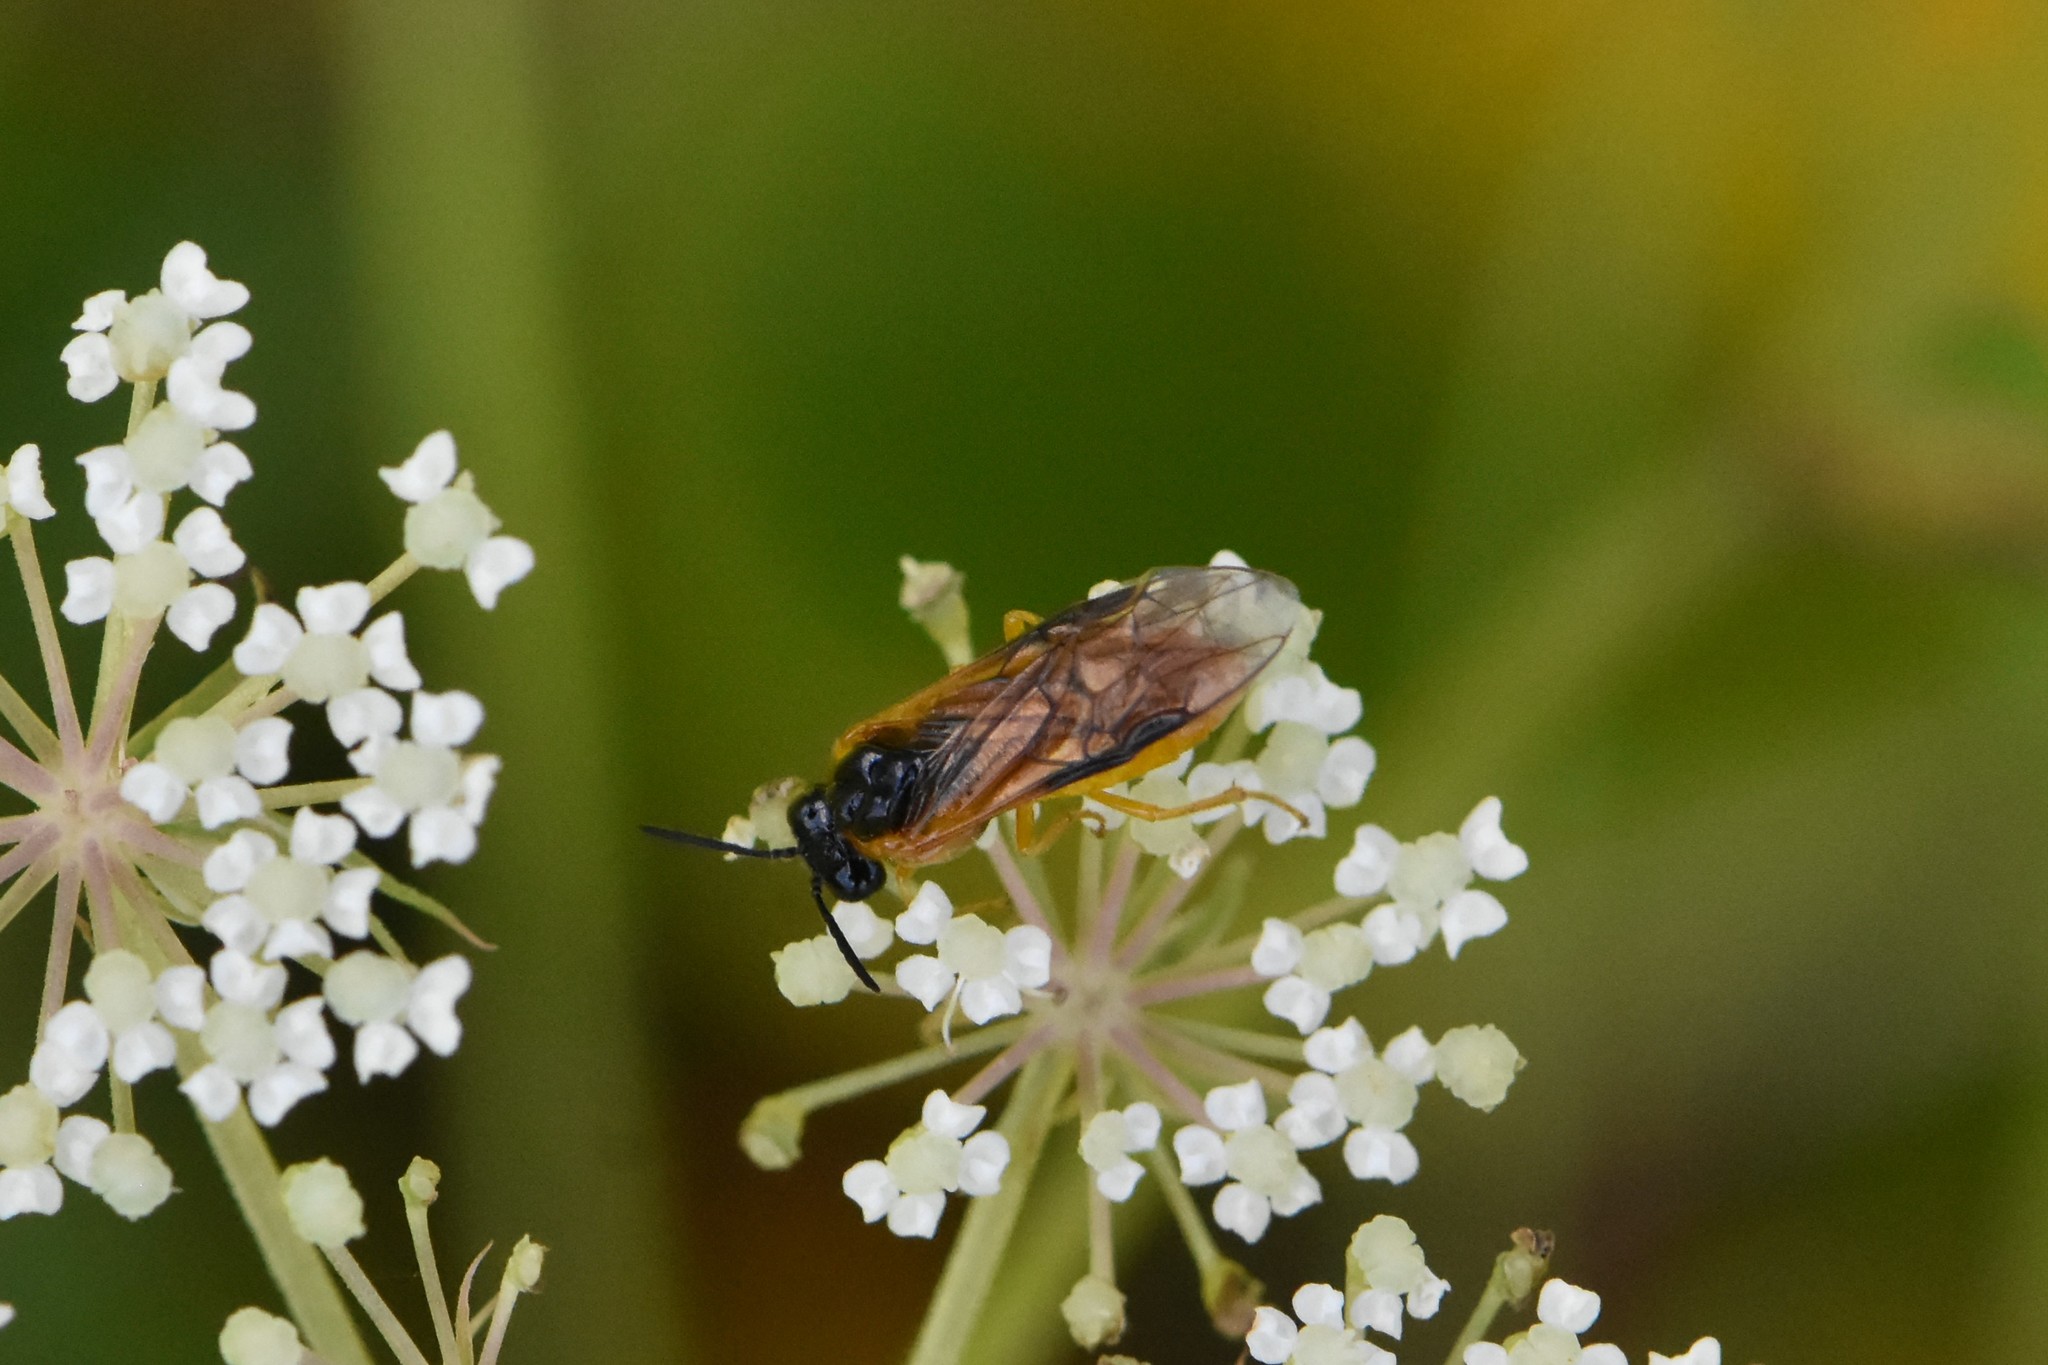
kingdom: Animalia
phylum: Arthropoda
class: Insecta
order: Hymenoptera
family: Tenthredinidae
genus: Selandria
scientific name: Selandria serva
